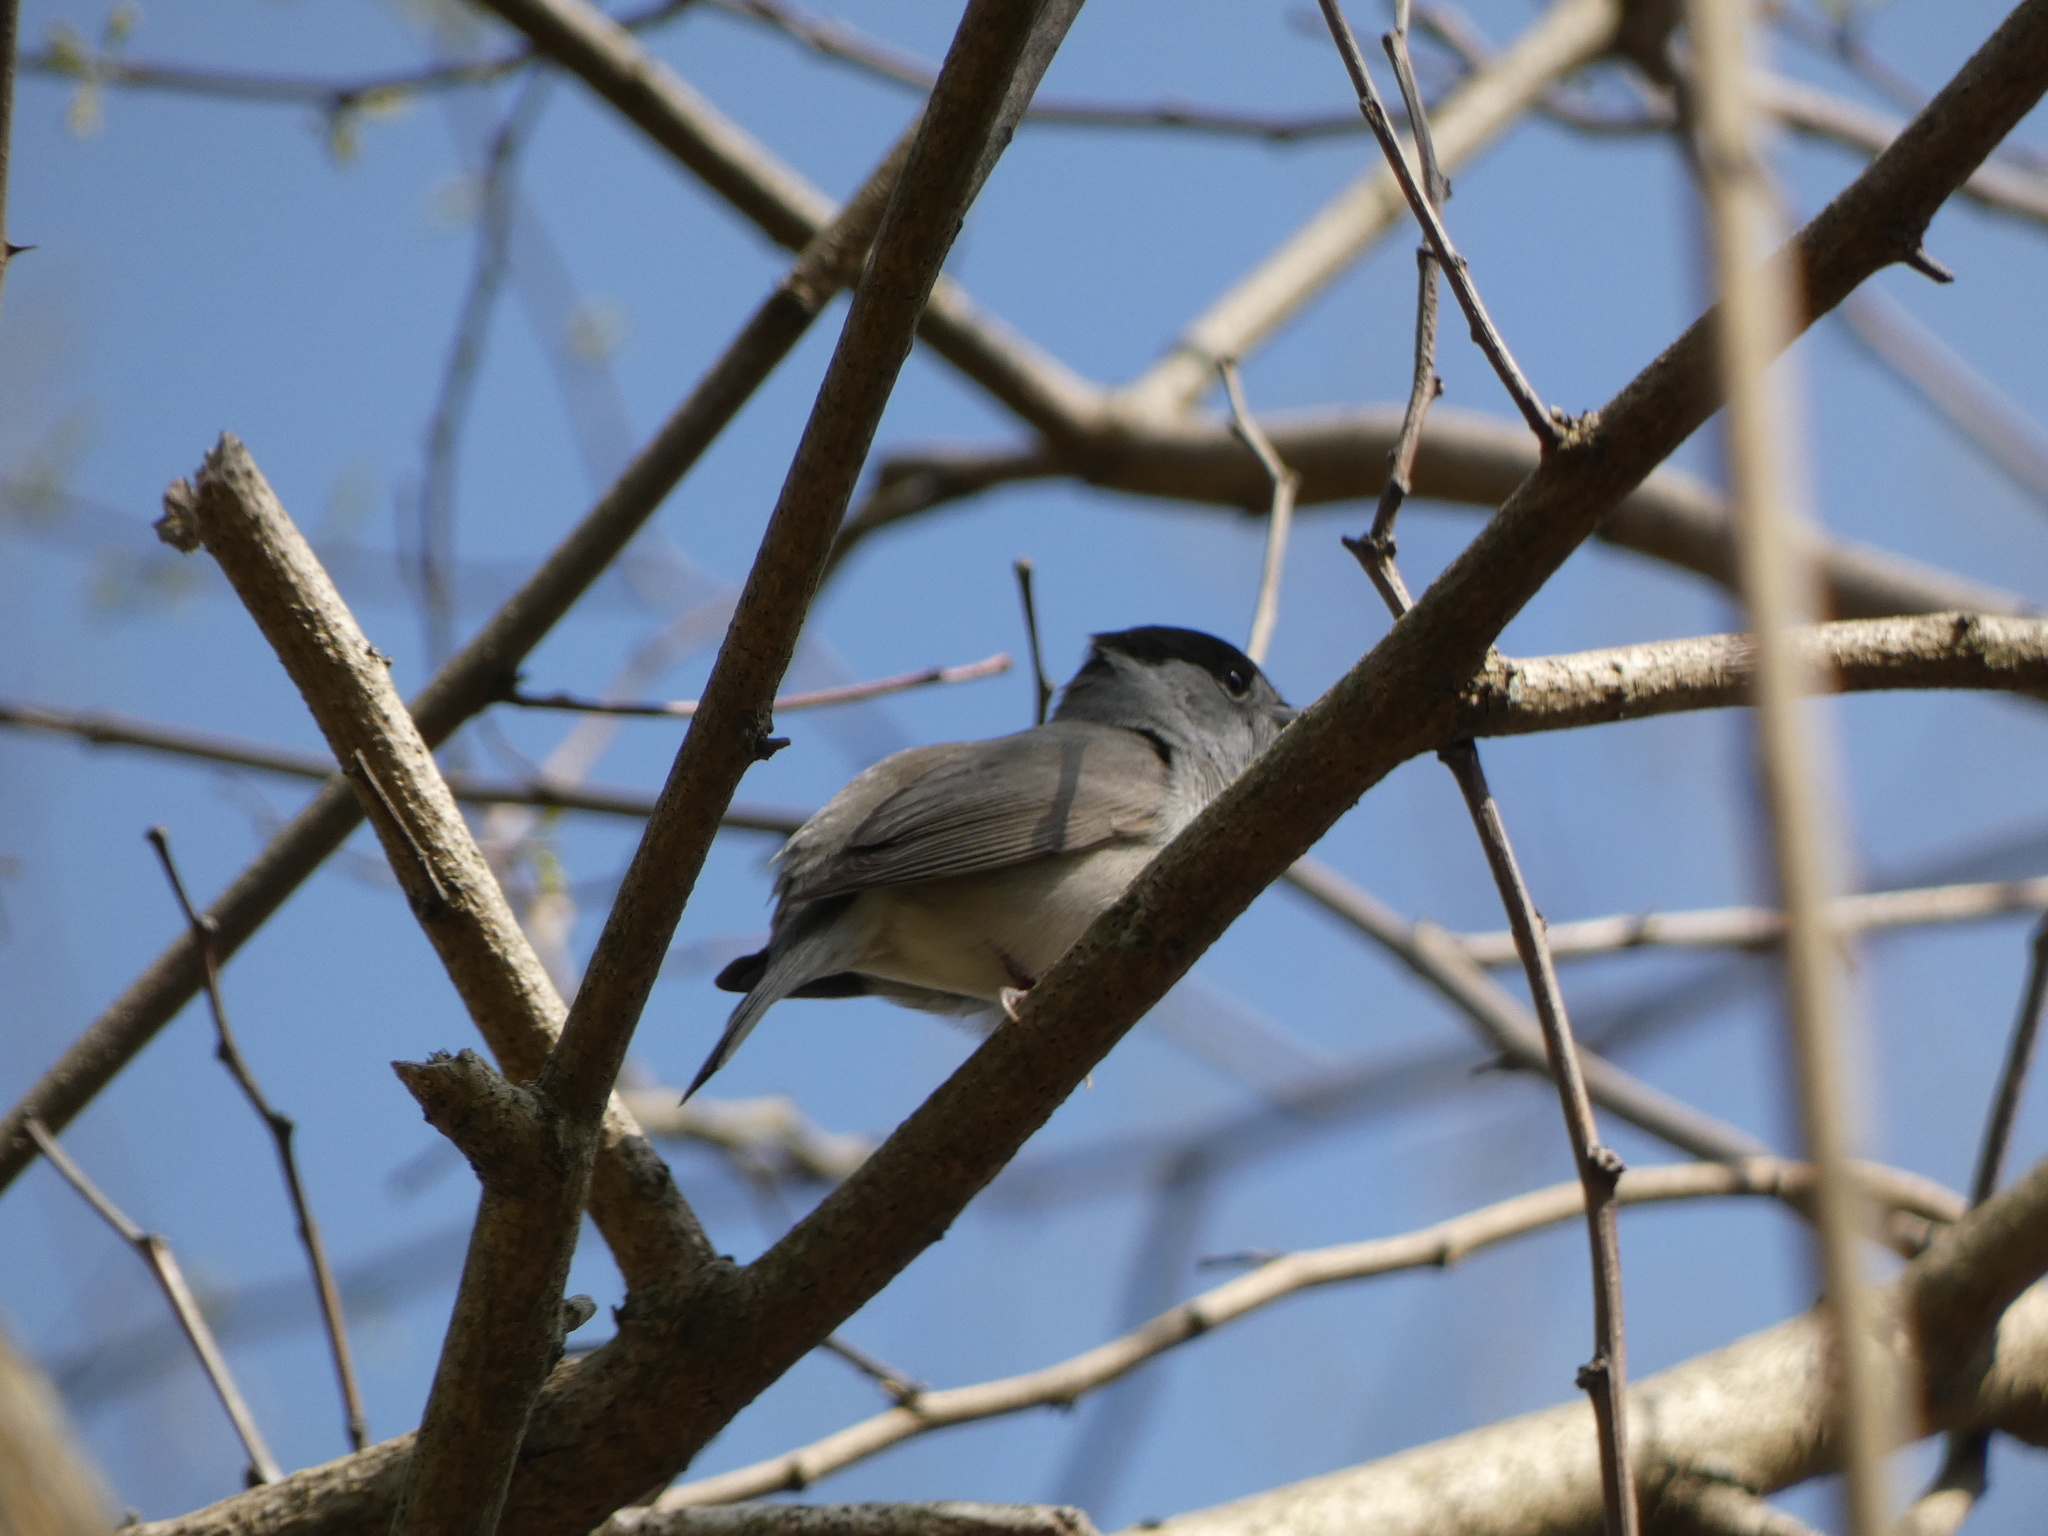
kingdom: Animalia
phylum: Chordata
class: Aves
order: Passeriformes
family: Sylviidae
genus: Sylvia
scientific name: Sylvia atricapilla
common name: Eurasian blackcap
